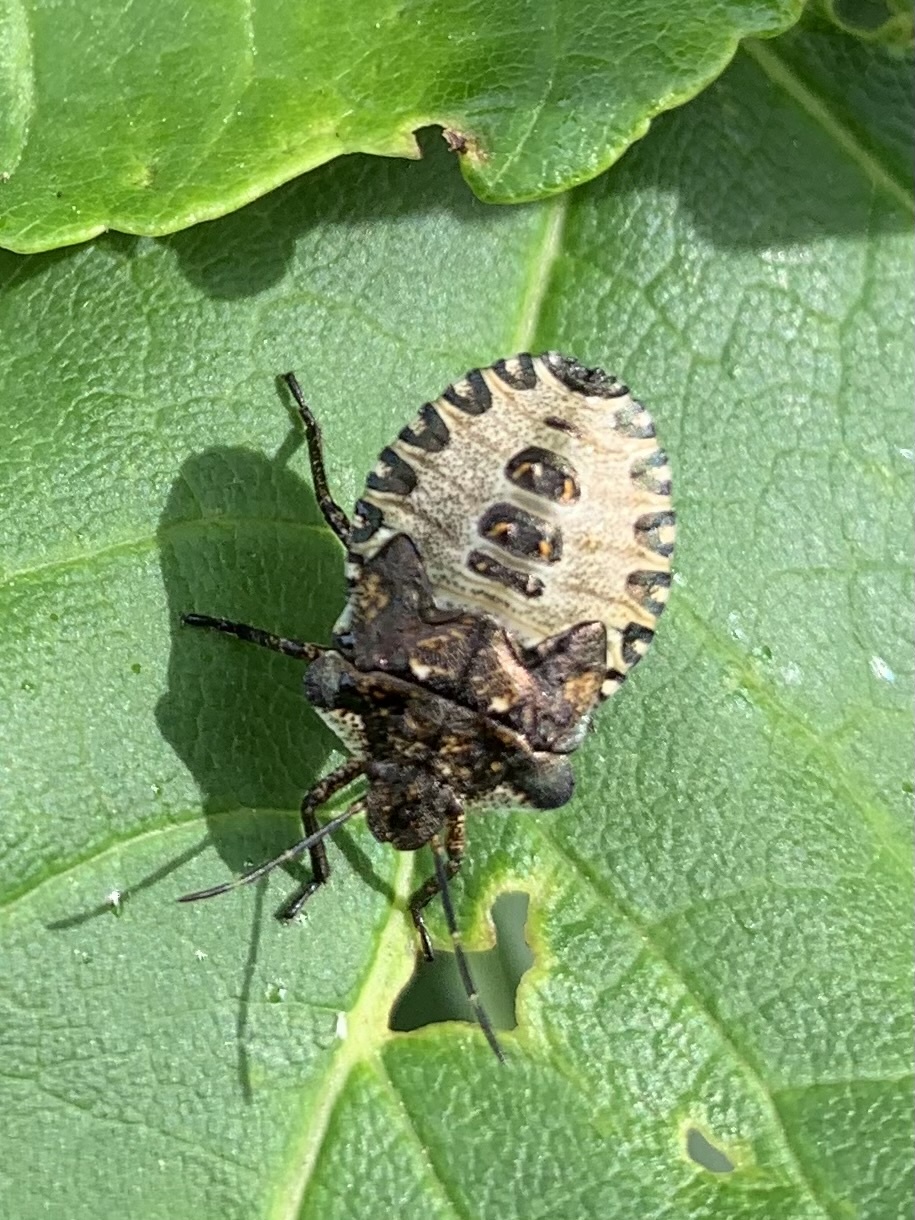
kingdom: Animalia
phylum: Arthropoda
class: Insecta
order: Hemiptera
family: Pentatomidae
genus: Pentatoma
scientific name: Pentatoma rufipes
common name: Forest bug
